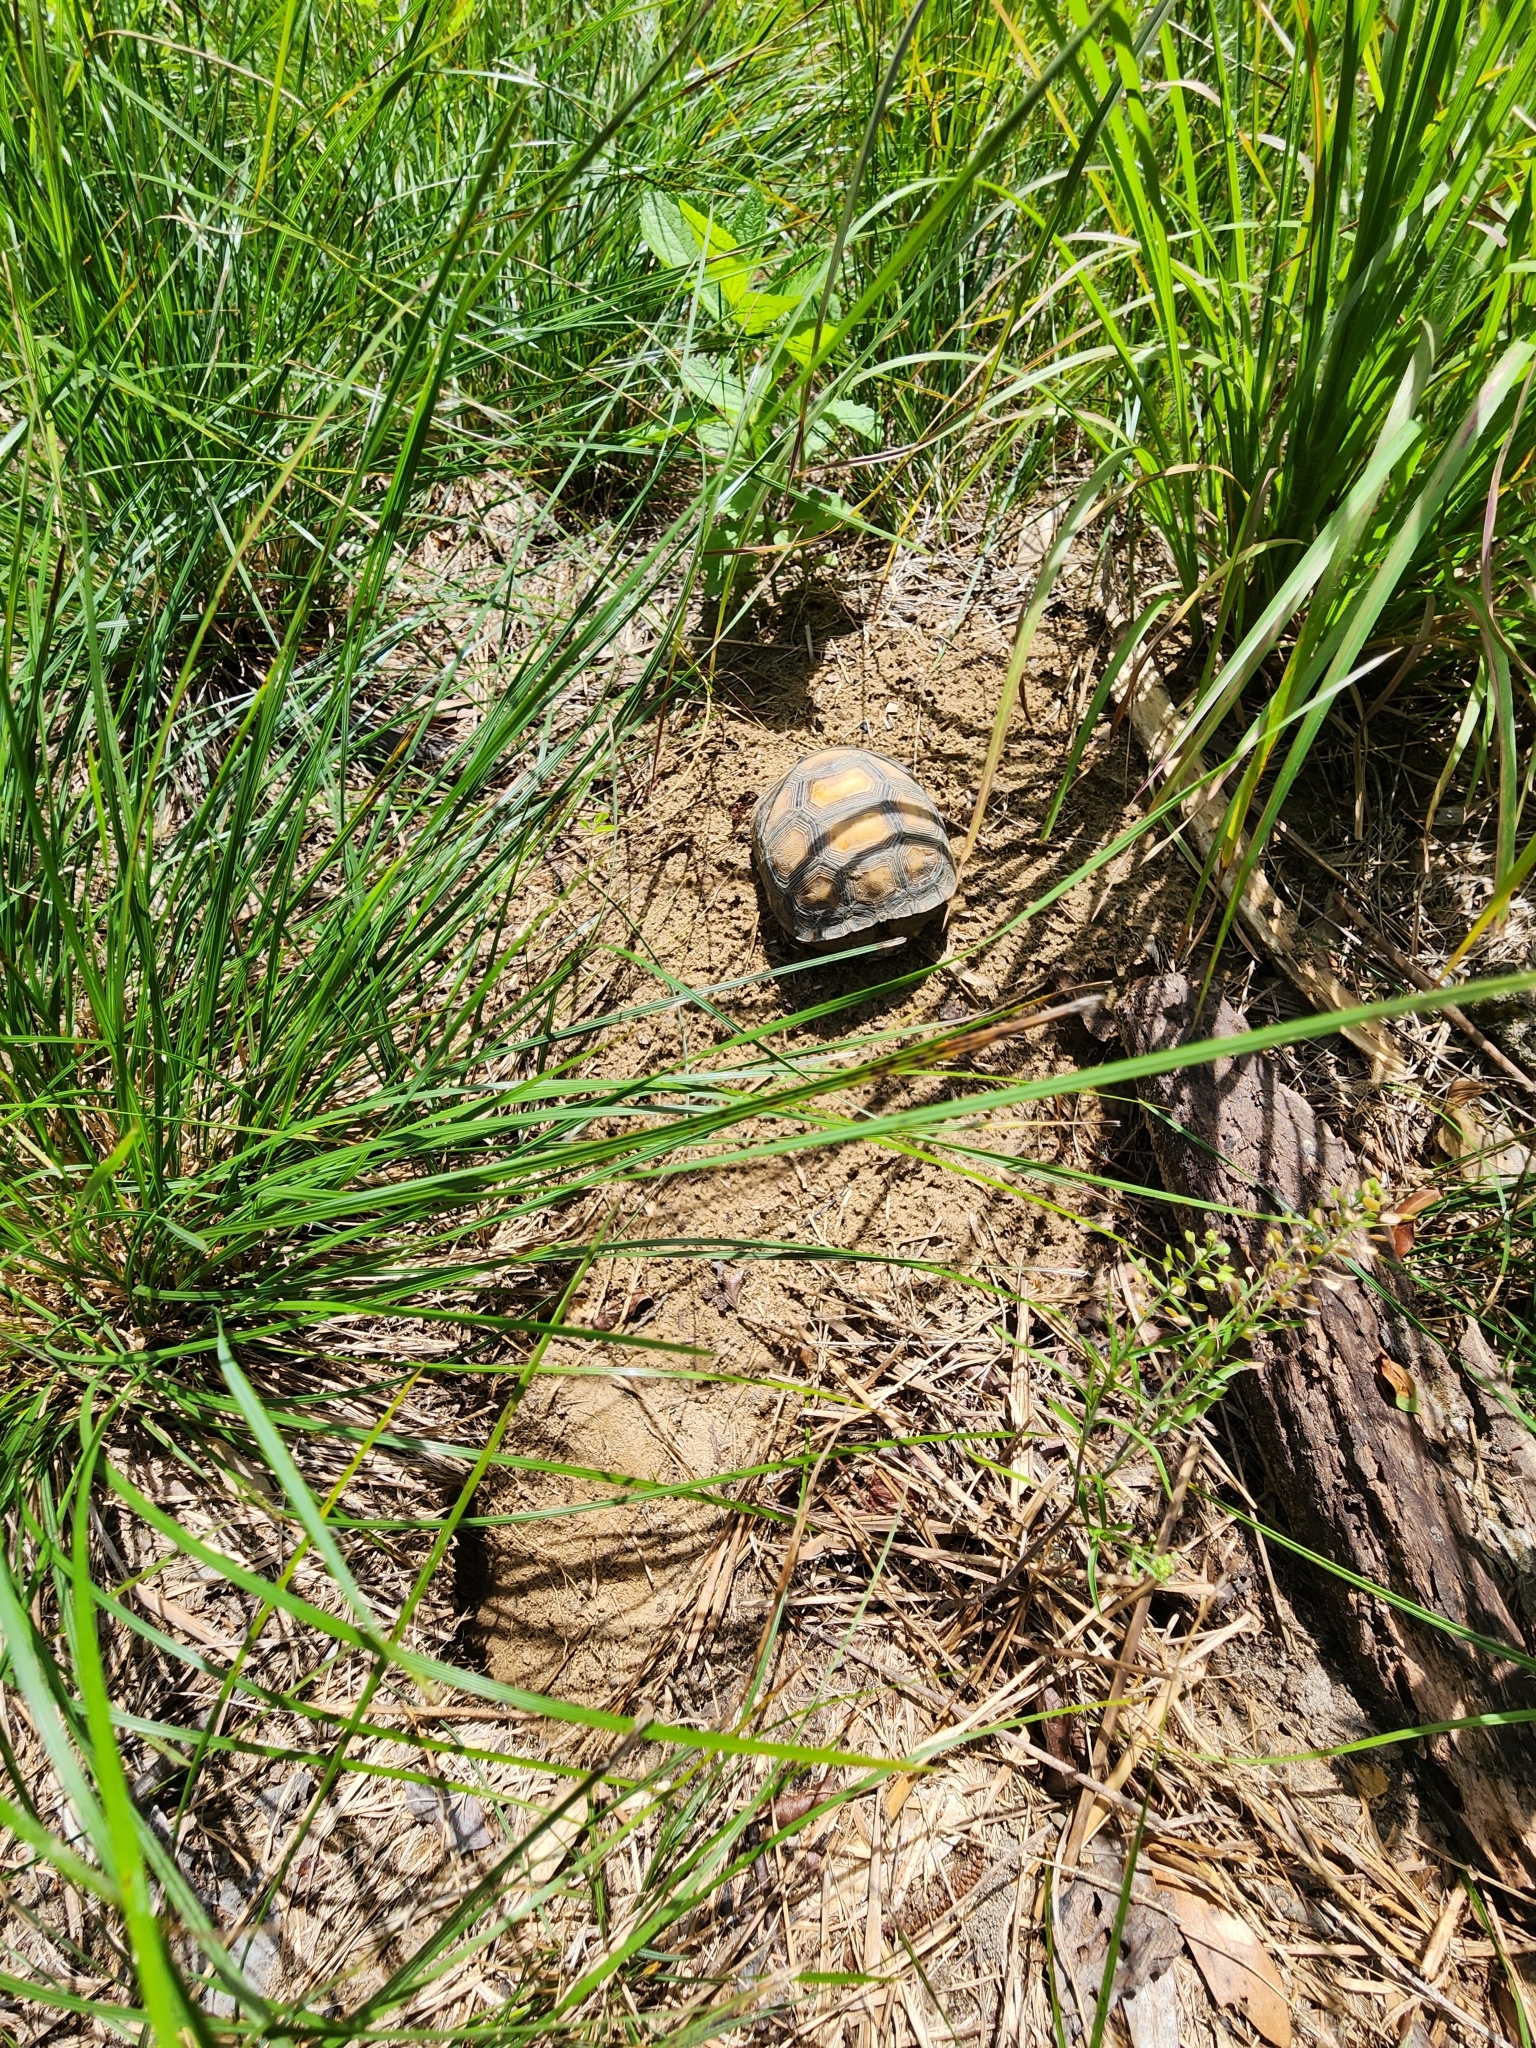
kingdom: Animalia
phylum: Chordata
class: Testudines
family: Testudinidae
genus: Gopherus
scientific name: Gopherus polyphemus
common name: Florida gopher tortoise
